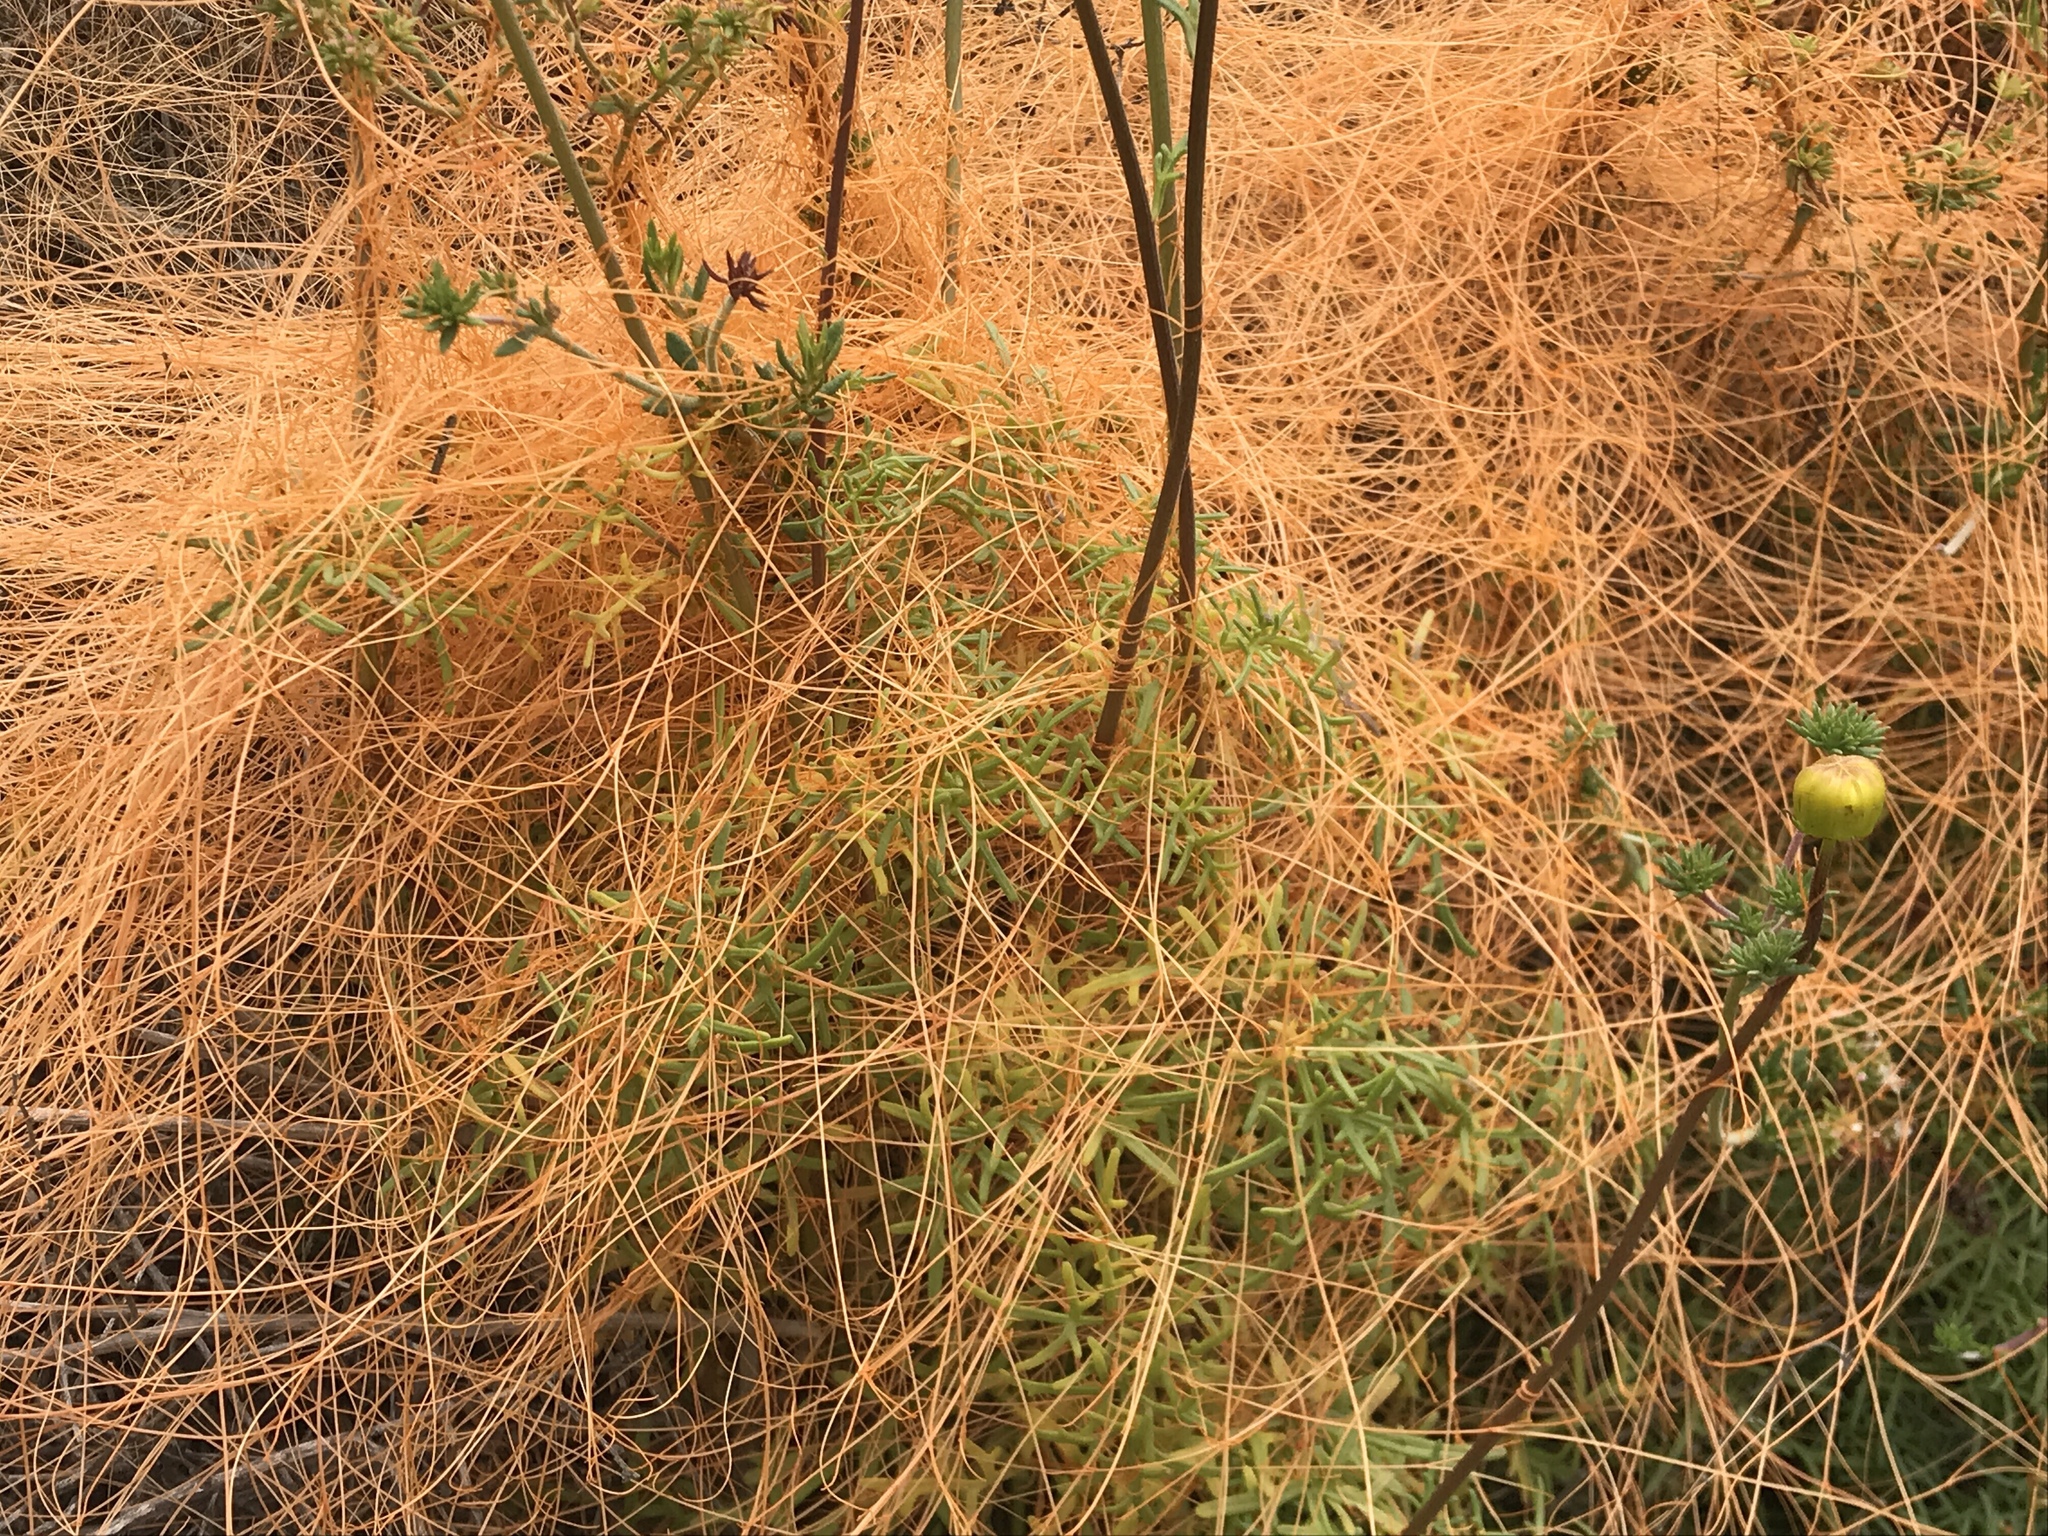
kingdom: Plantae
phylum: Tracheophyta
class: Magnoliopsida
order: Solanales
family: Convolvulaceae
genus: Cuscuta
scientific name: Cuscuta californica
